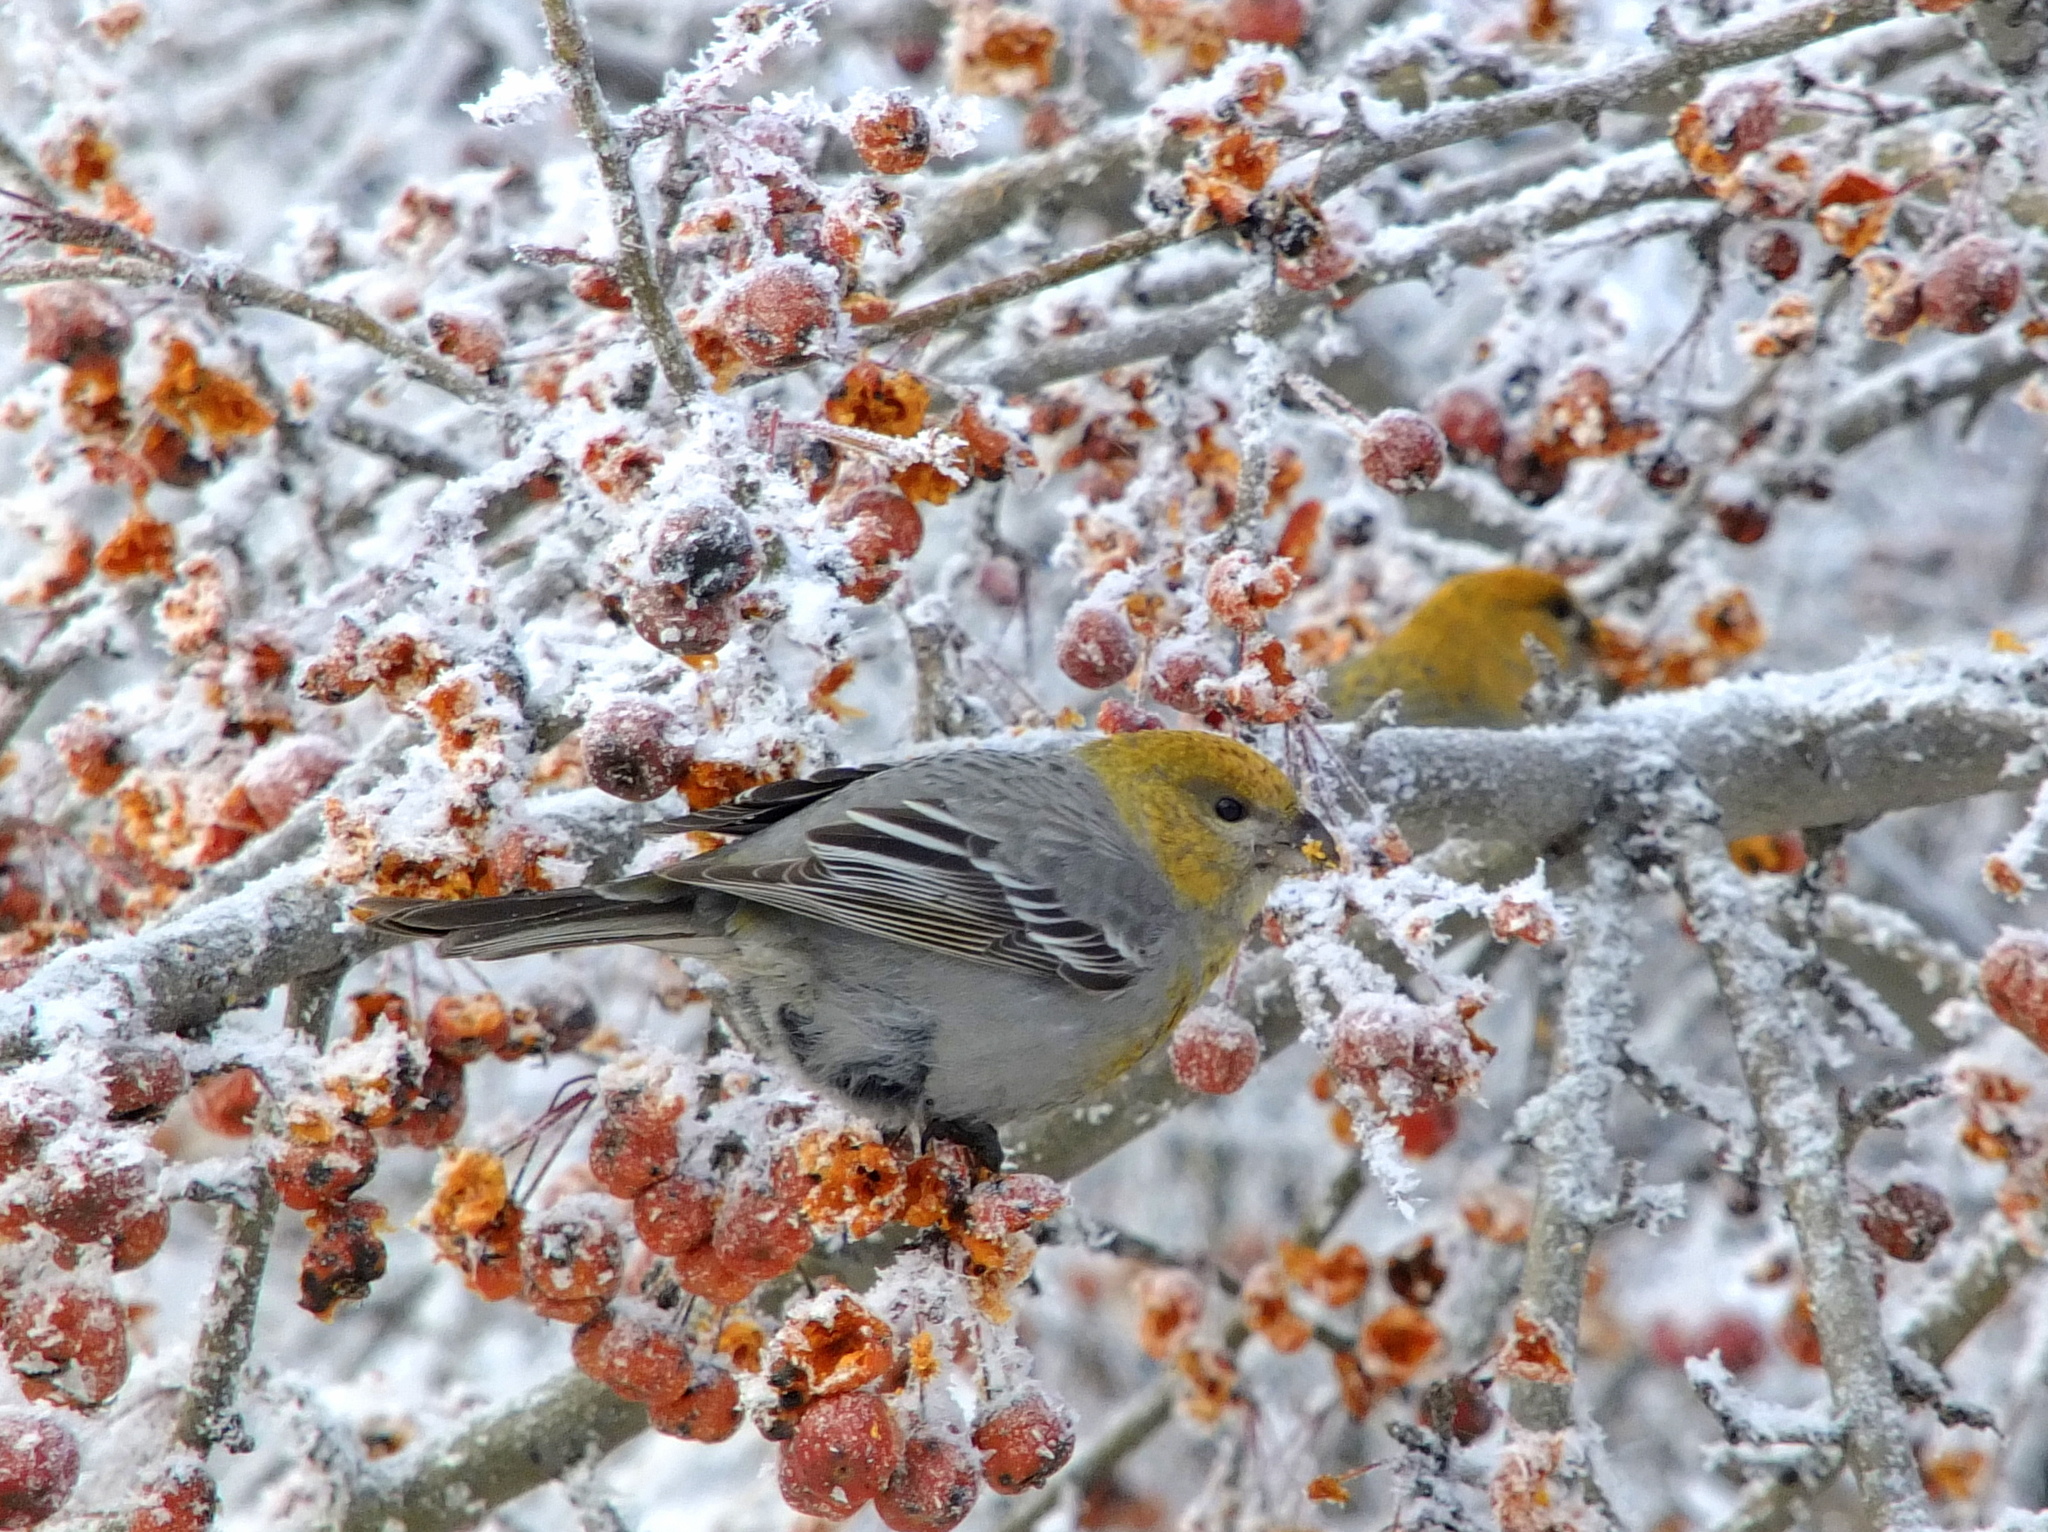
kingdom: Animalia
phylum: Chordata
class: Aves
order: Passeriformes
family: Fringillidae
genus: Pinicola
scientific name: Pinicola enucleator
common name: Pine grosbeak
